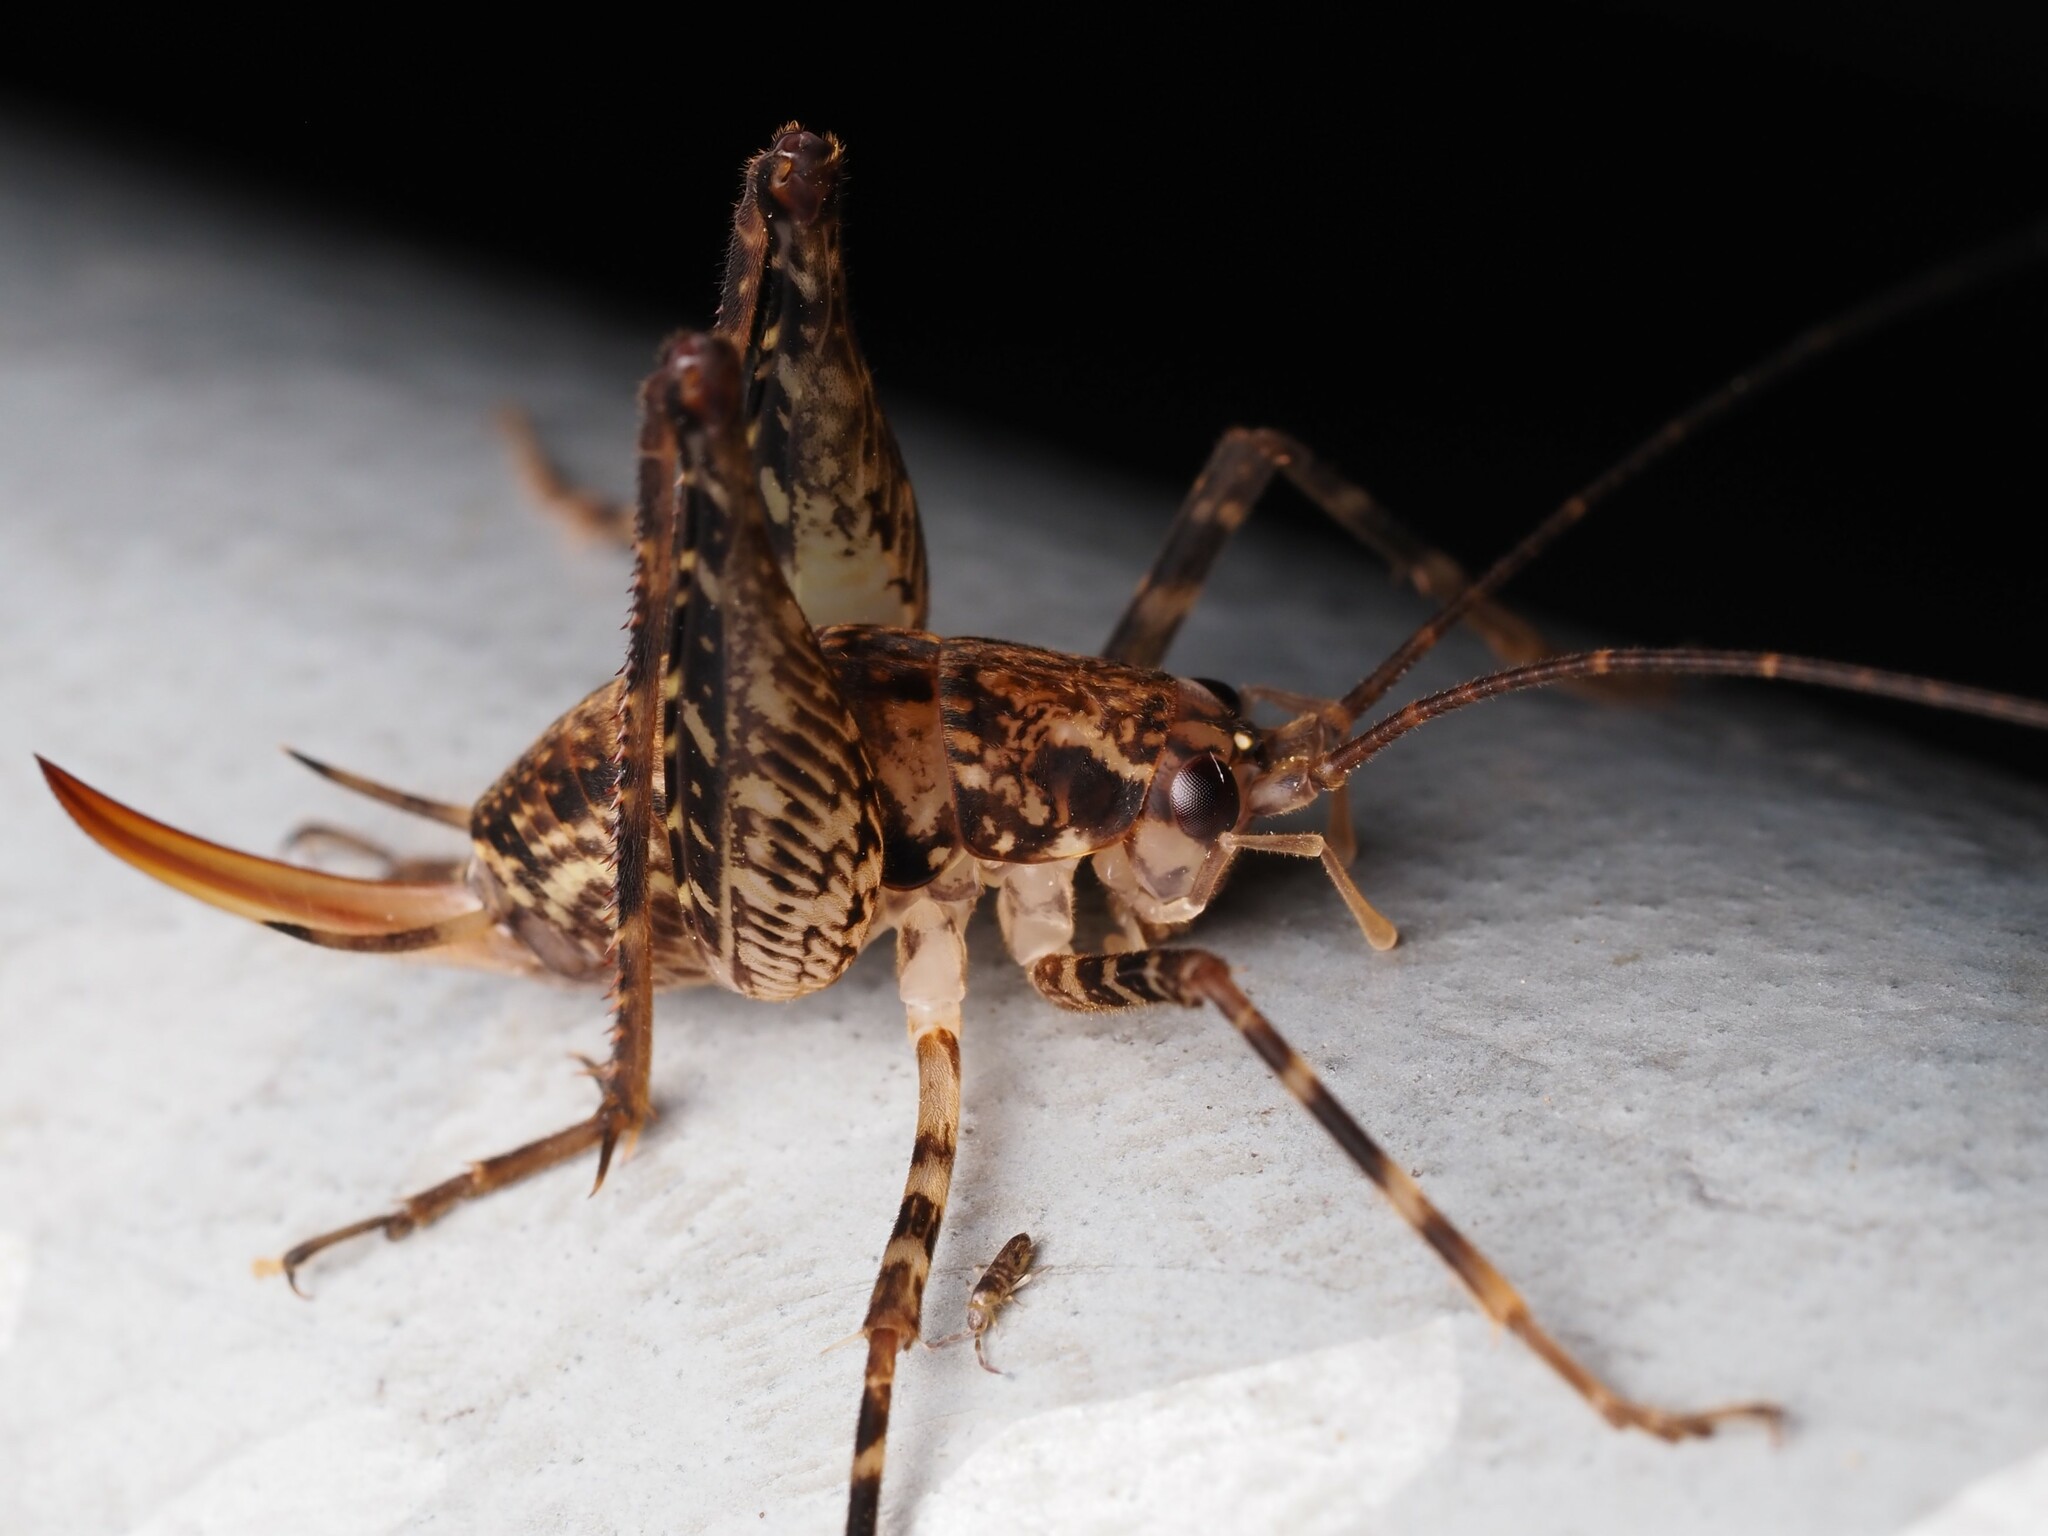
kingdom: Animalia
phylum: Arthropoda
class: Insecta
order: Orthoptera
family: Rhaphidophoridae
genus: Pleioplectron
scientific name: Pleioplectron hudsoni
